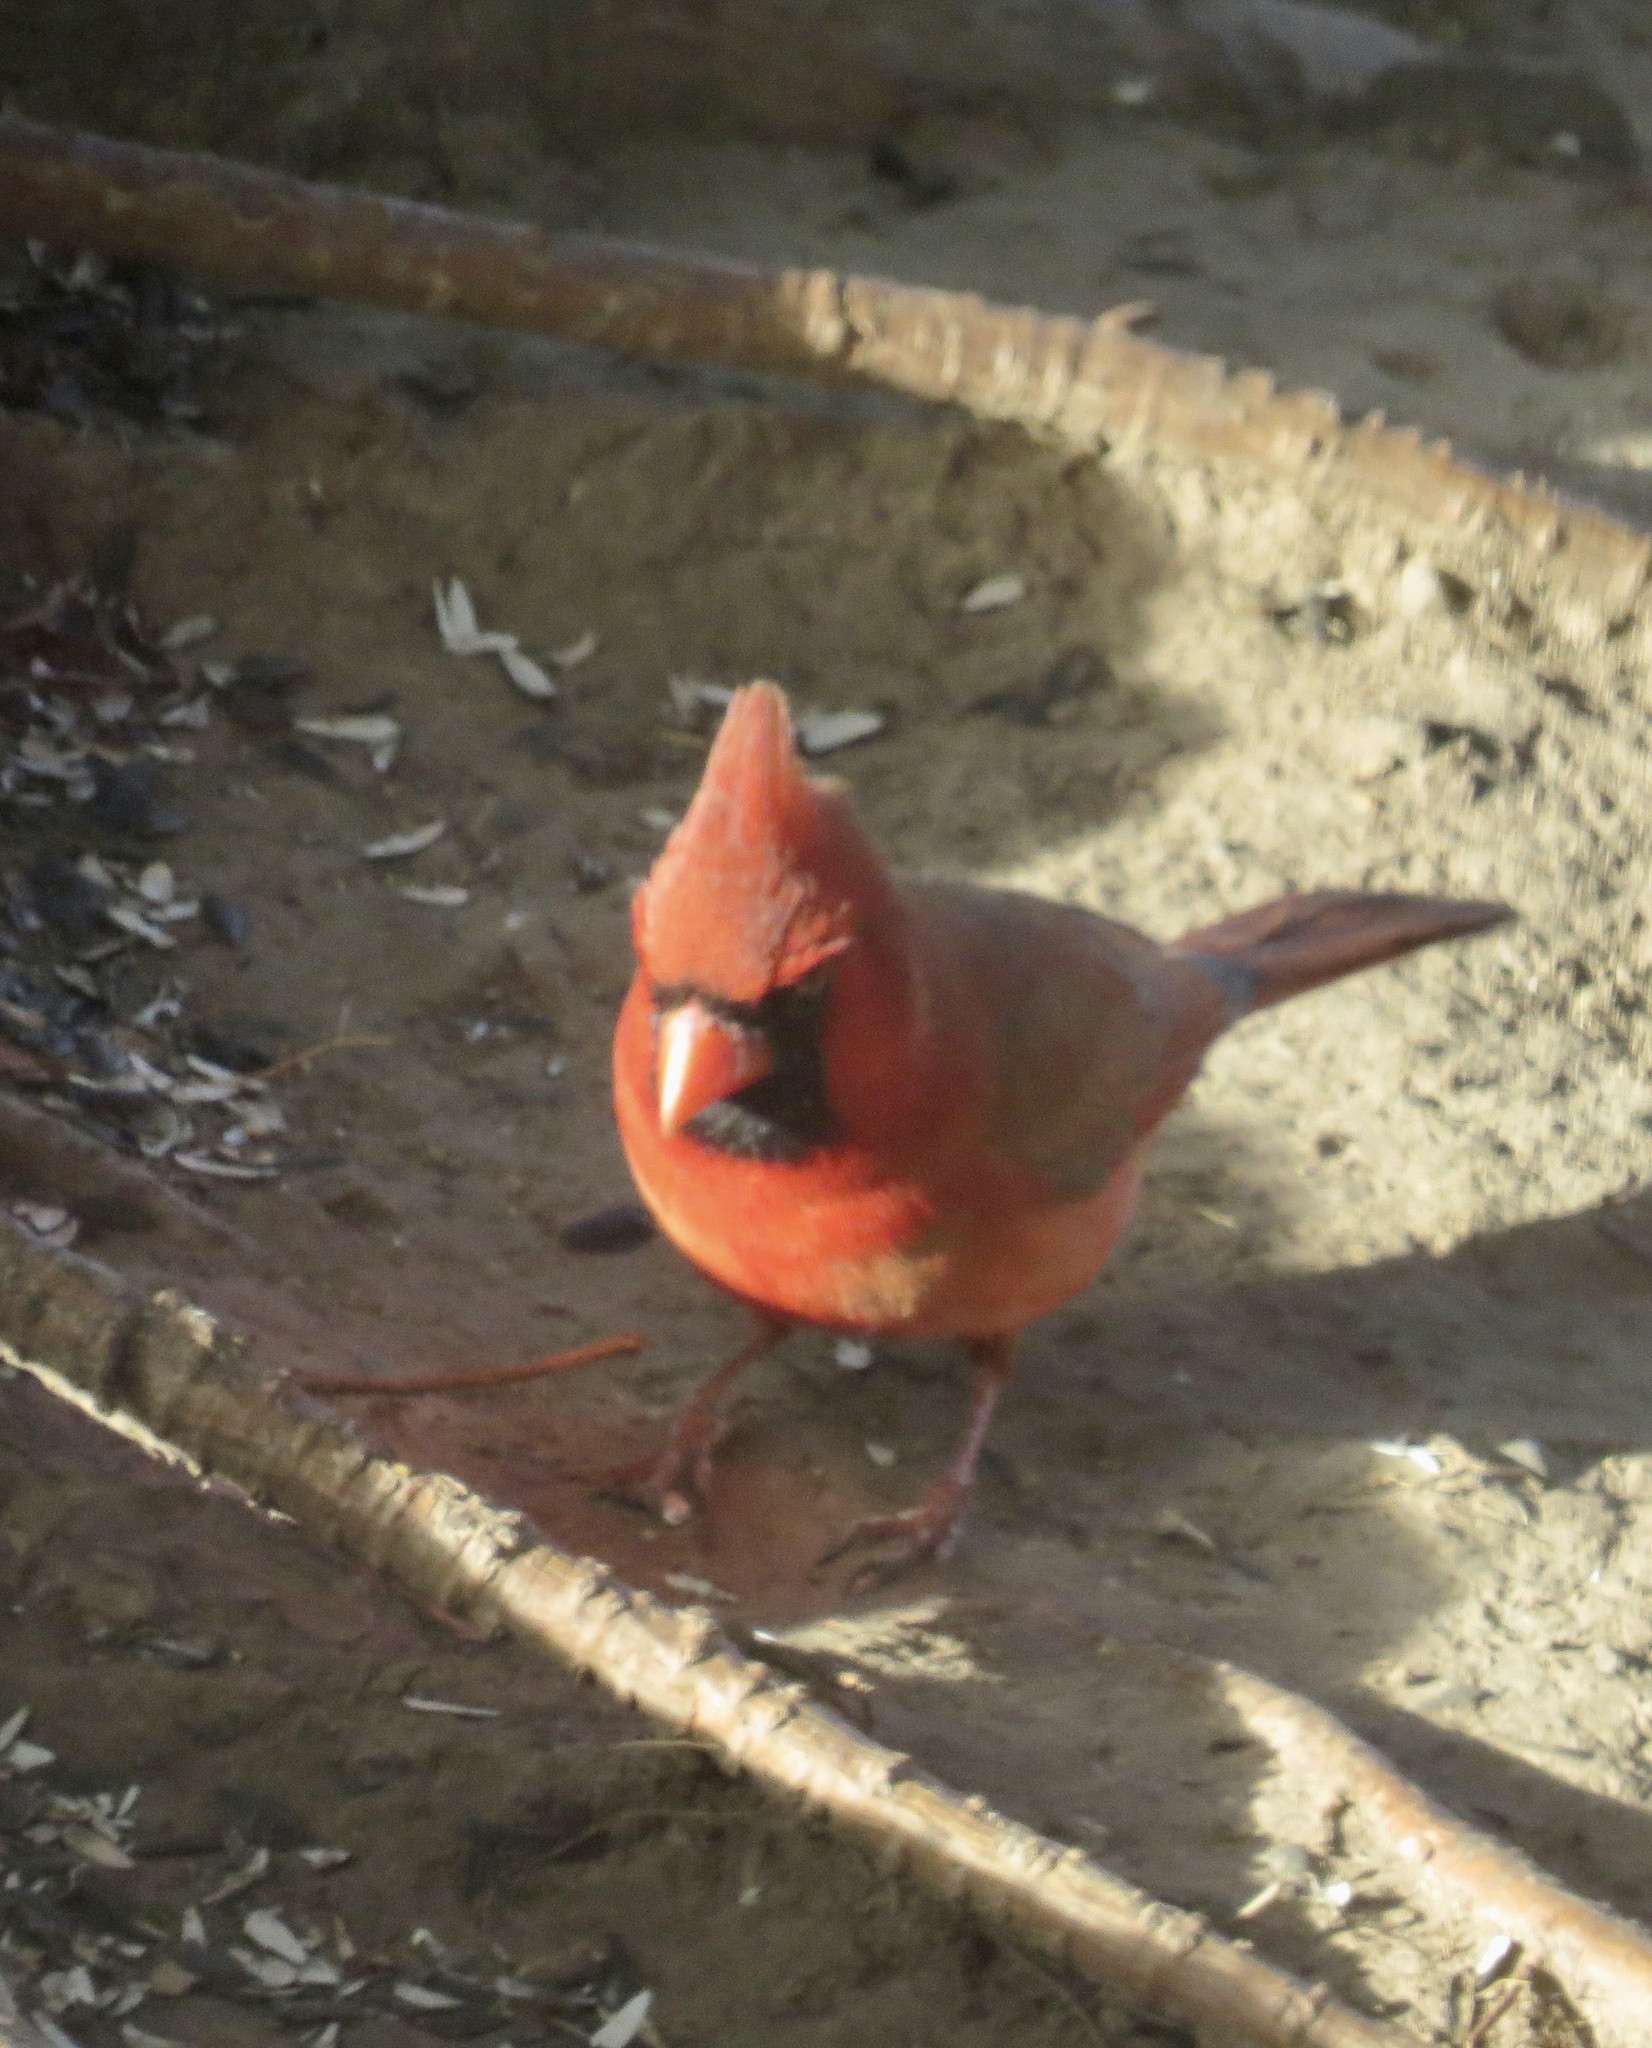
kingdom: Animalia
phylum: Chordata
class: Aves
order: Passeriformes
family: Cardinalidae
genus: Cardinalis
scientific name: Cardinalis cardinalis
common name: Northern cardinal
